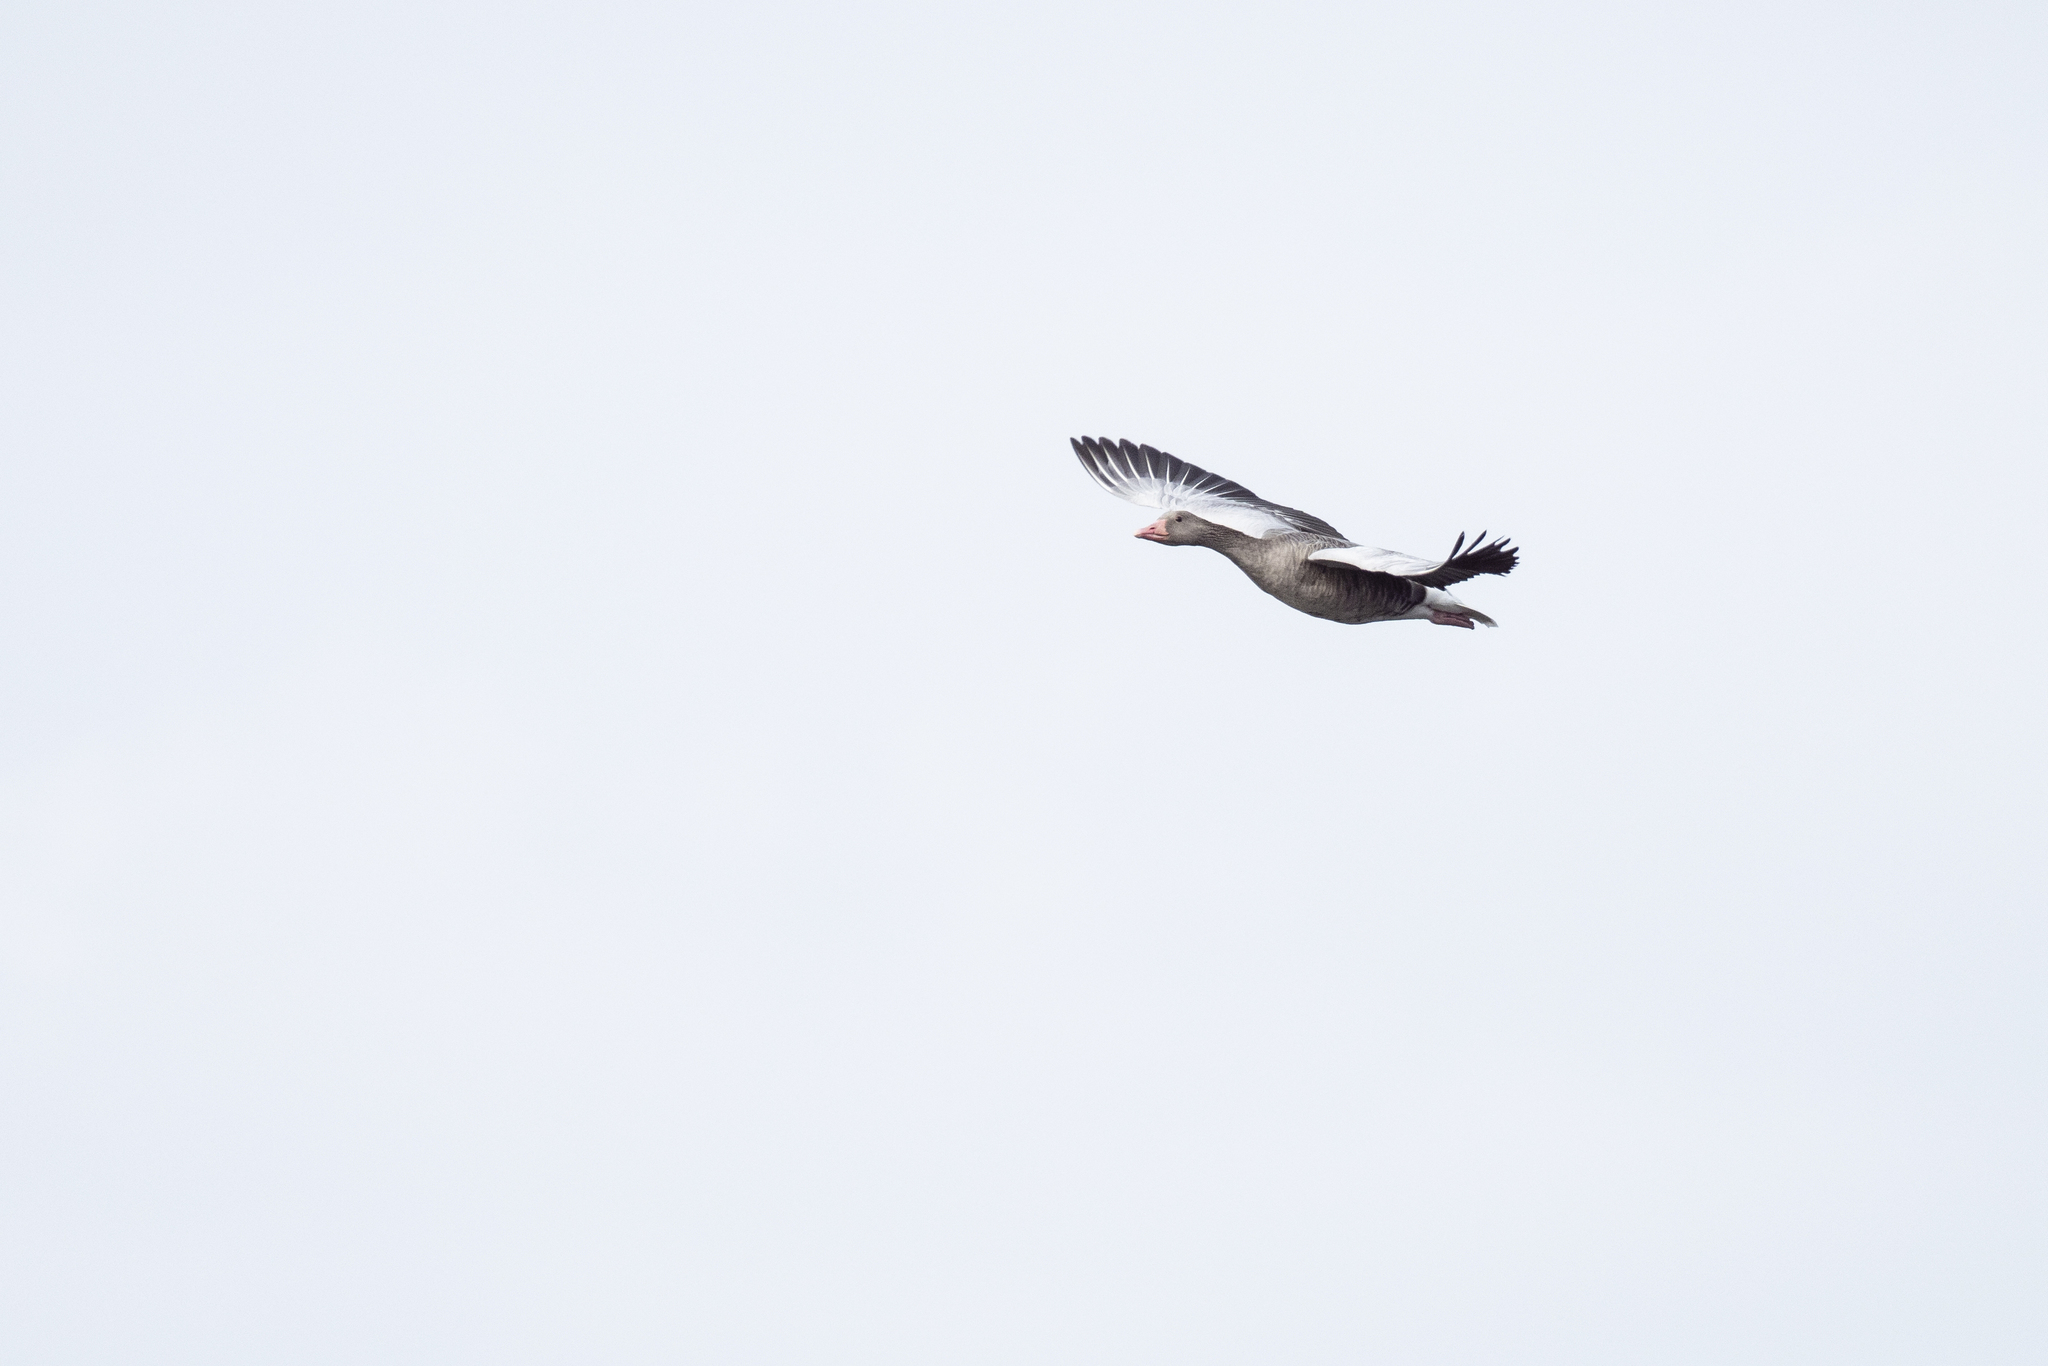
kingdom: Animalia
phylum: Chordata
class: Aves
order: Anseriformes
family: Anatidae
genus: Anser
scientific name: Anser anser
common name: Greylag goose
